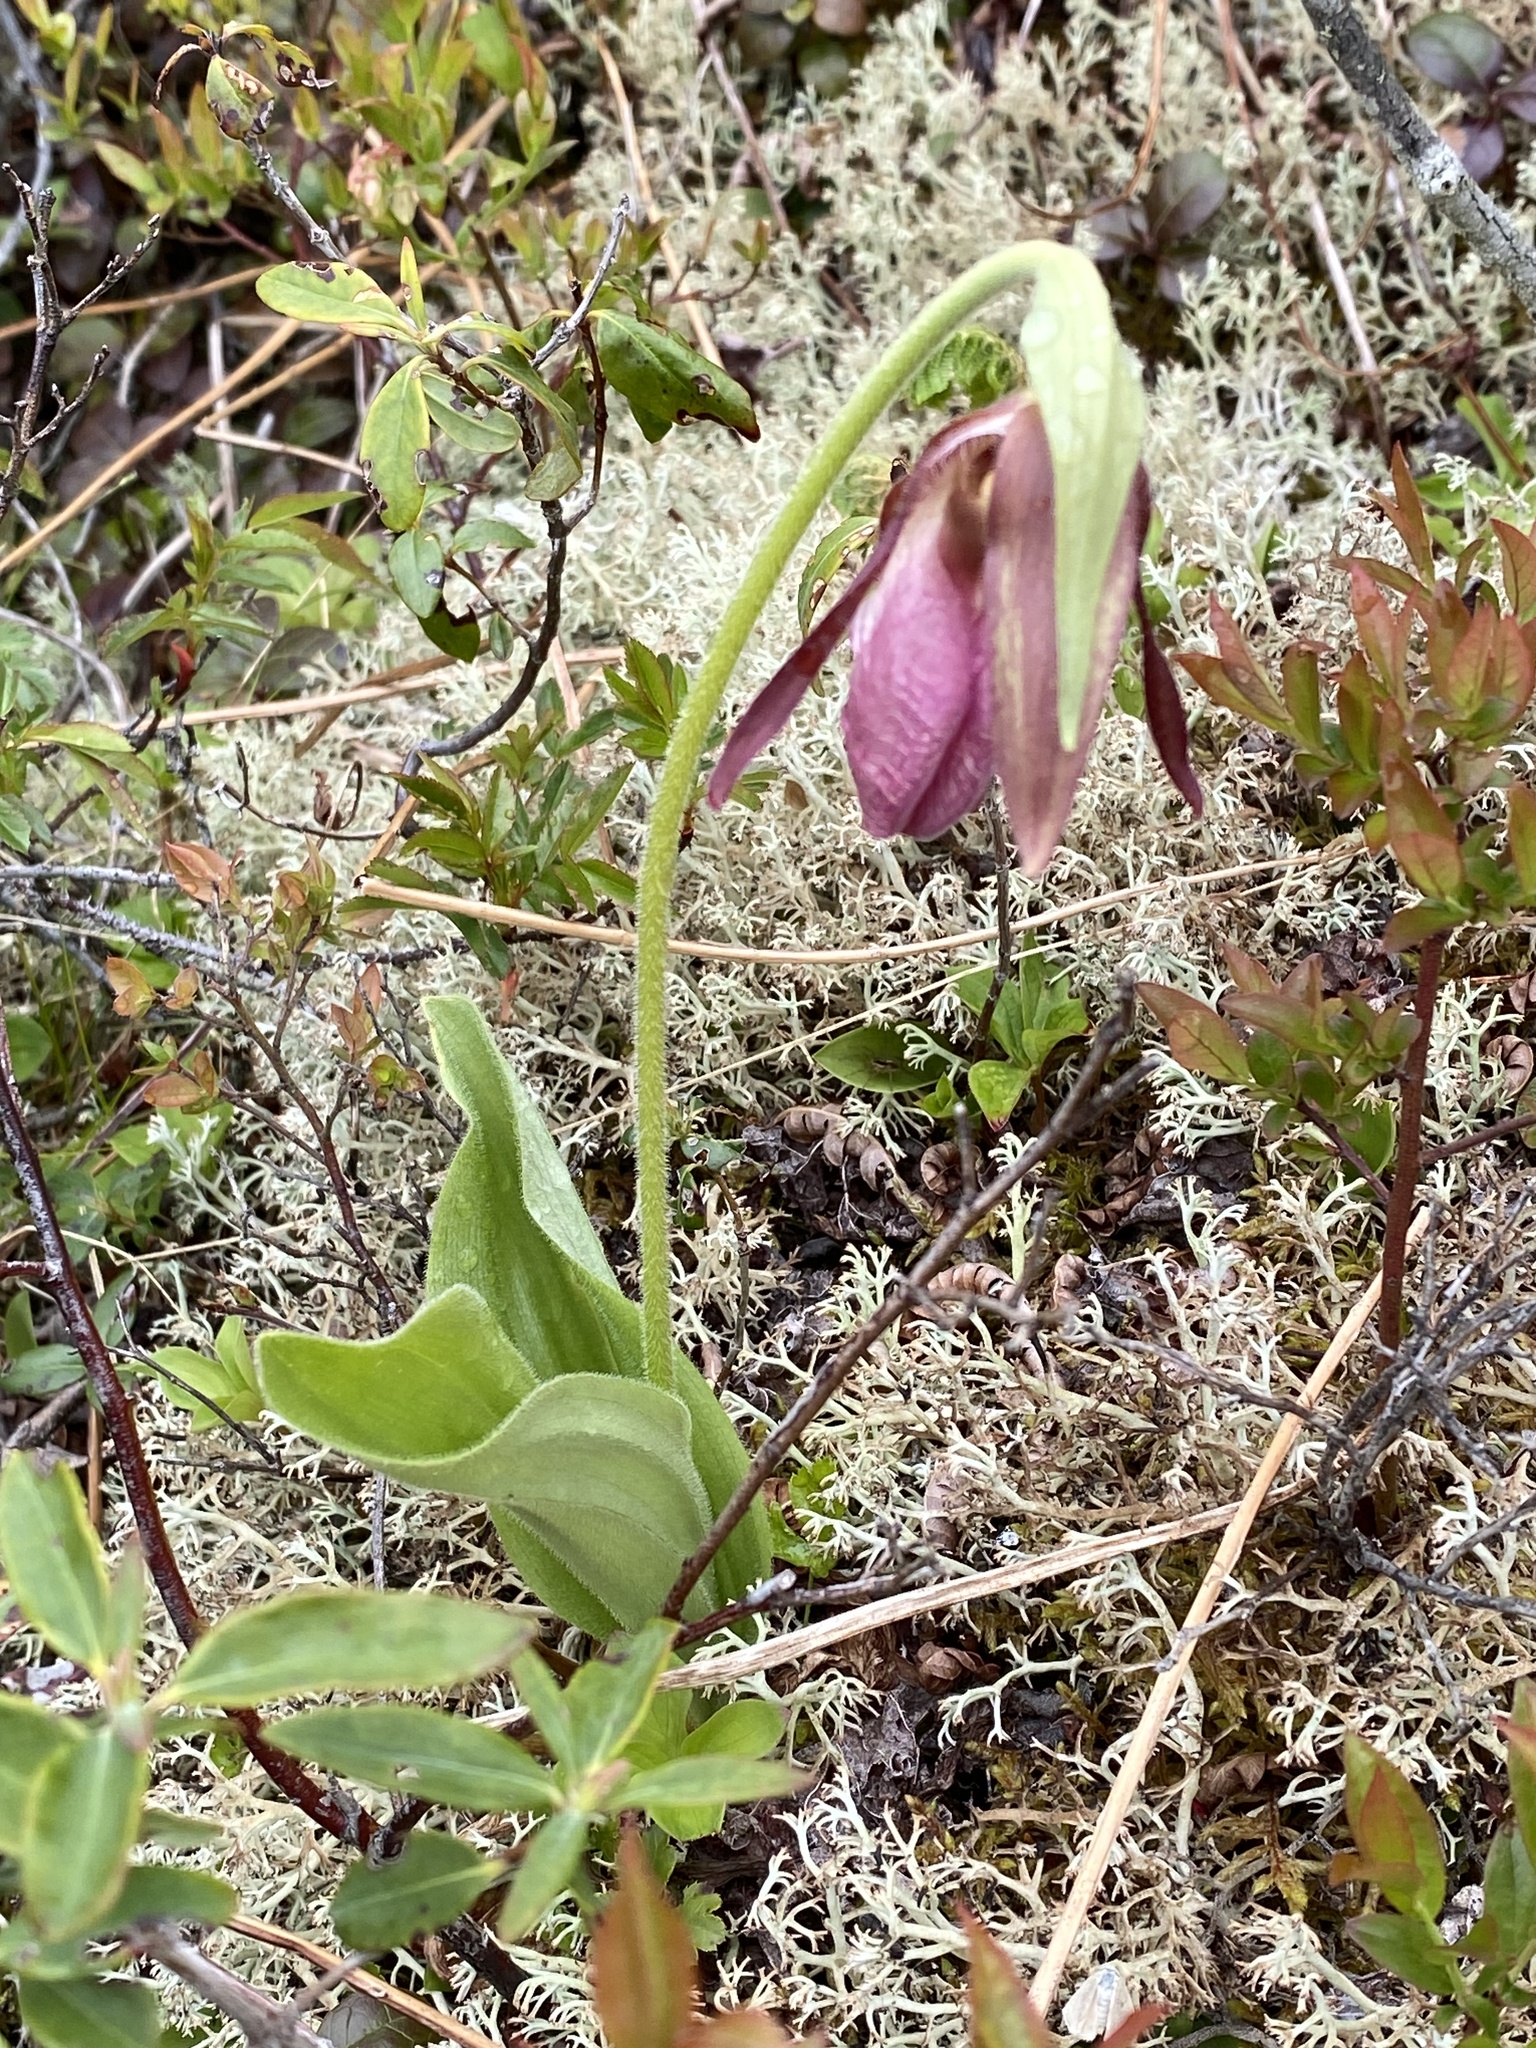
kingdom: Plantae
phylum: Tracheophyta
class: Liliopsida
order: Asparagales
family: Orchidaceae
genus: Cypripedium
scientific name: Cypripedium acaule
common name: Pink lady's-slipper
